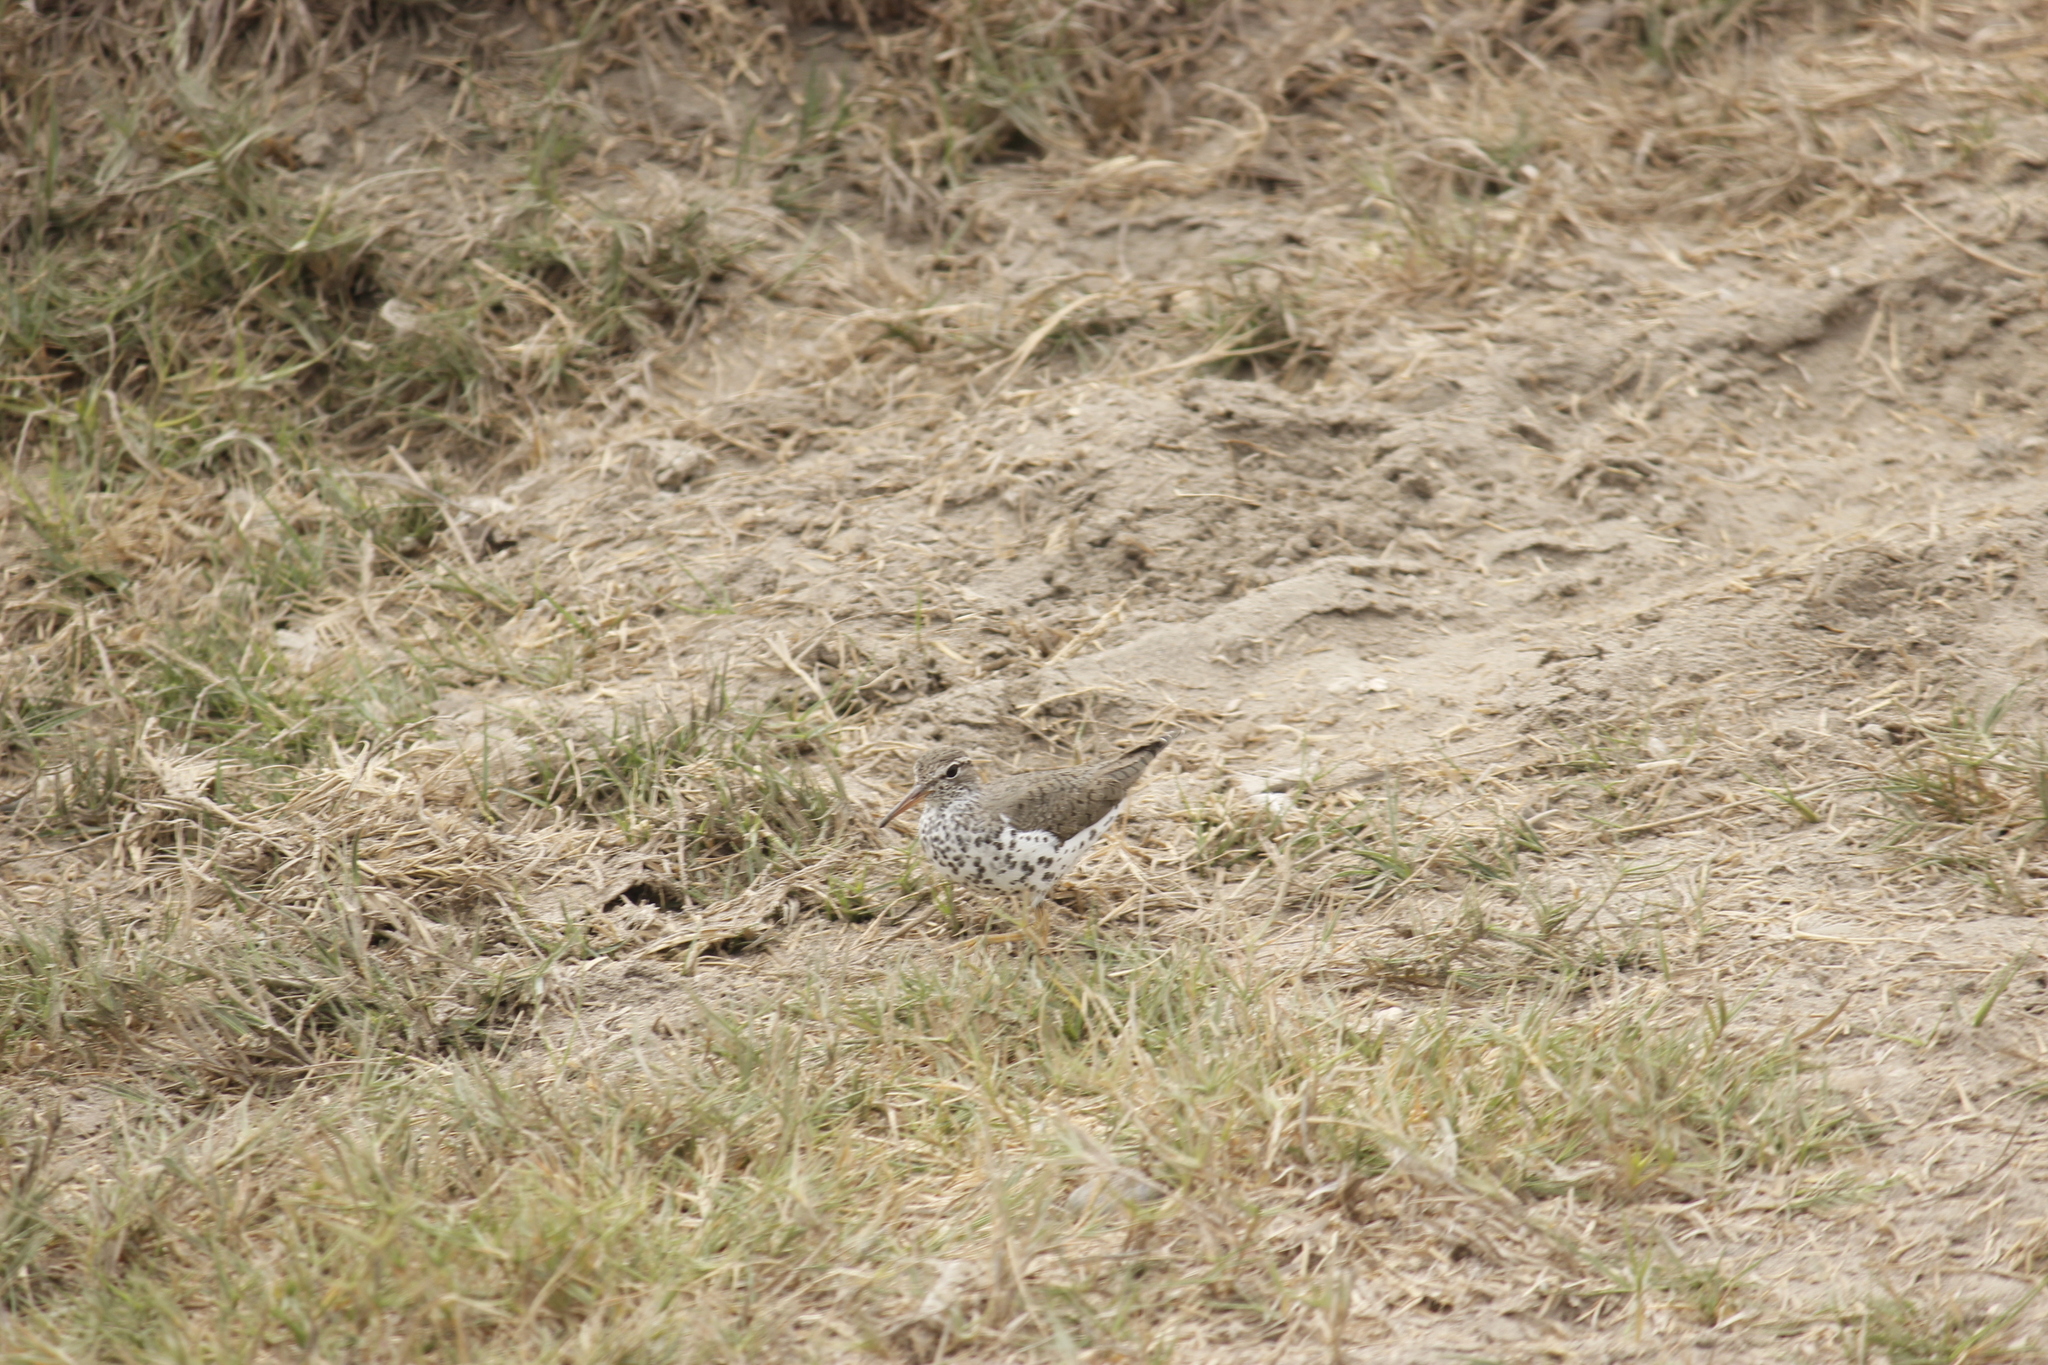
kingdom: Animalia
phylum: Chordata
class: Aves
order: Charadriiformes
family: Scolopacidae
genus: Actitis
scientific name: Actitis macularius
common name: Spotted sandpiper
